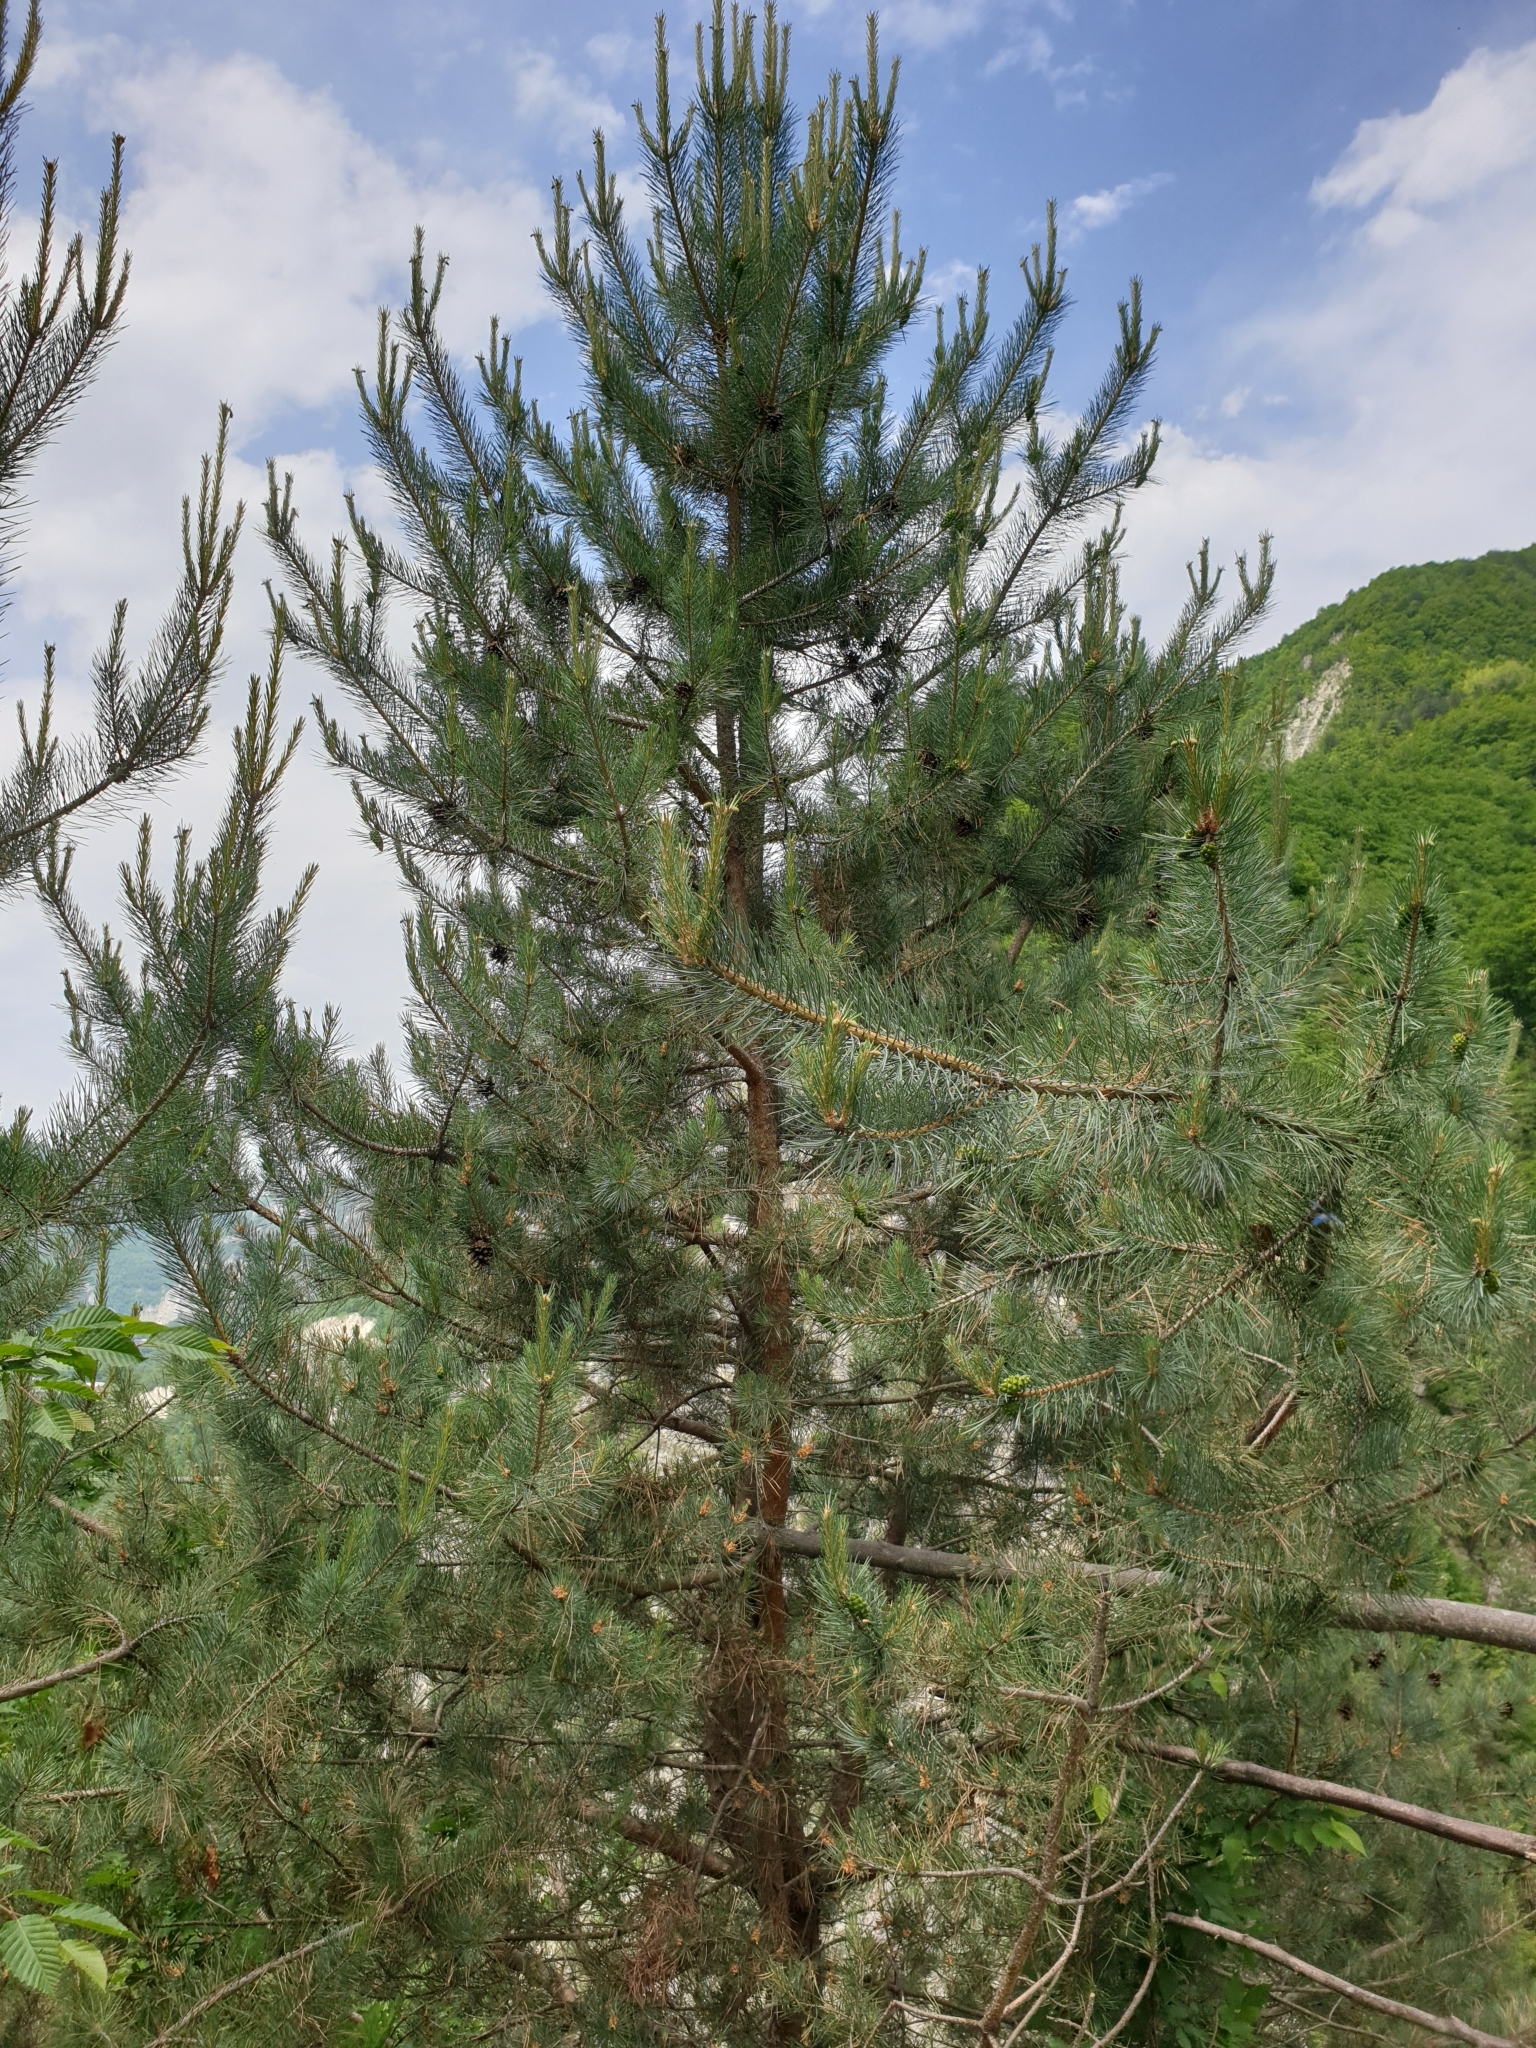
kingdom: Plantae
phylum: Tracheophyta
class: Pinopsida
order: Pinales
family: Pinaceae
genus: Pinus
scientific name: Pinus sylvestris
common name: Scots pine
